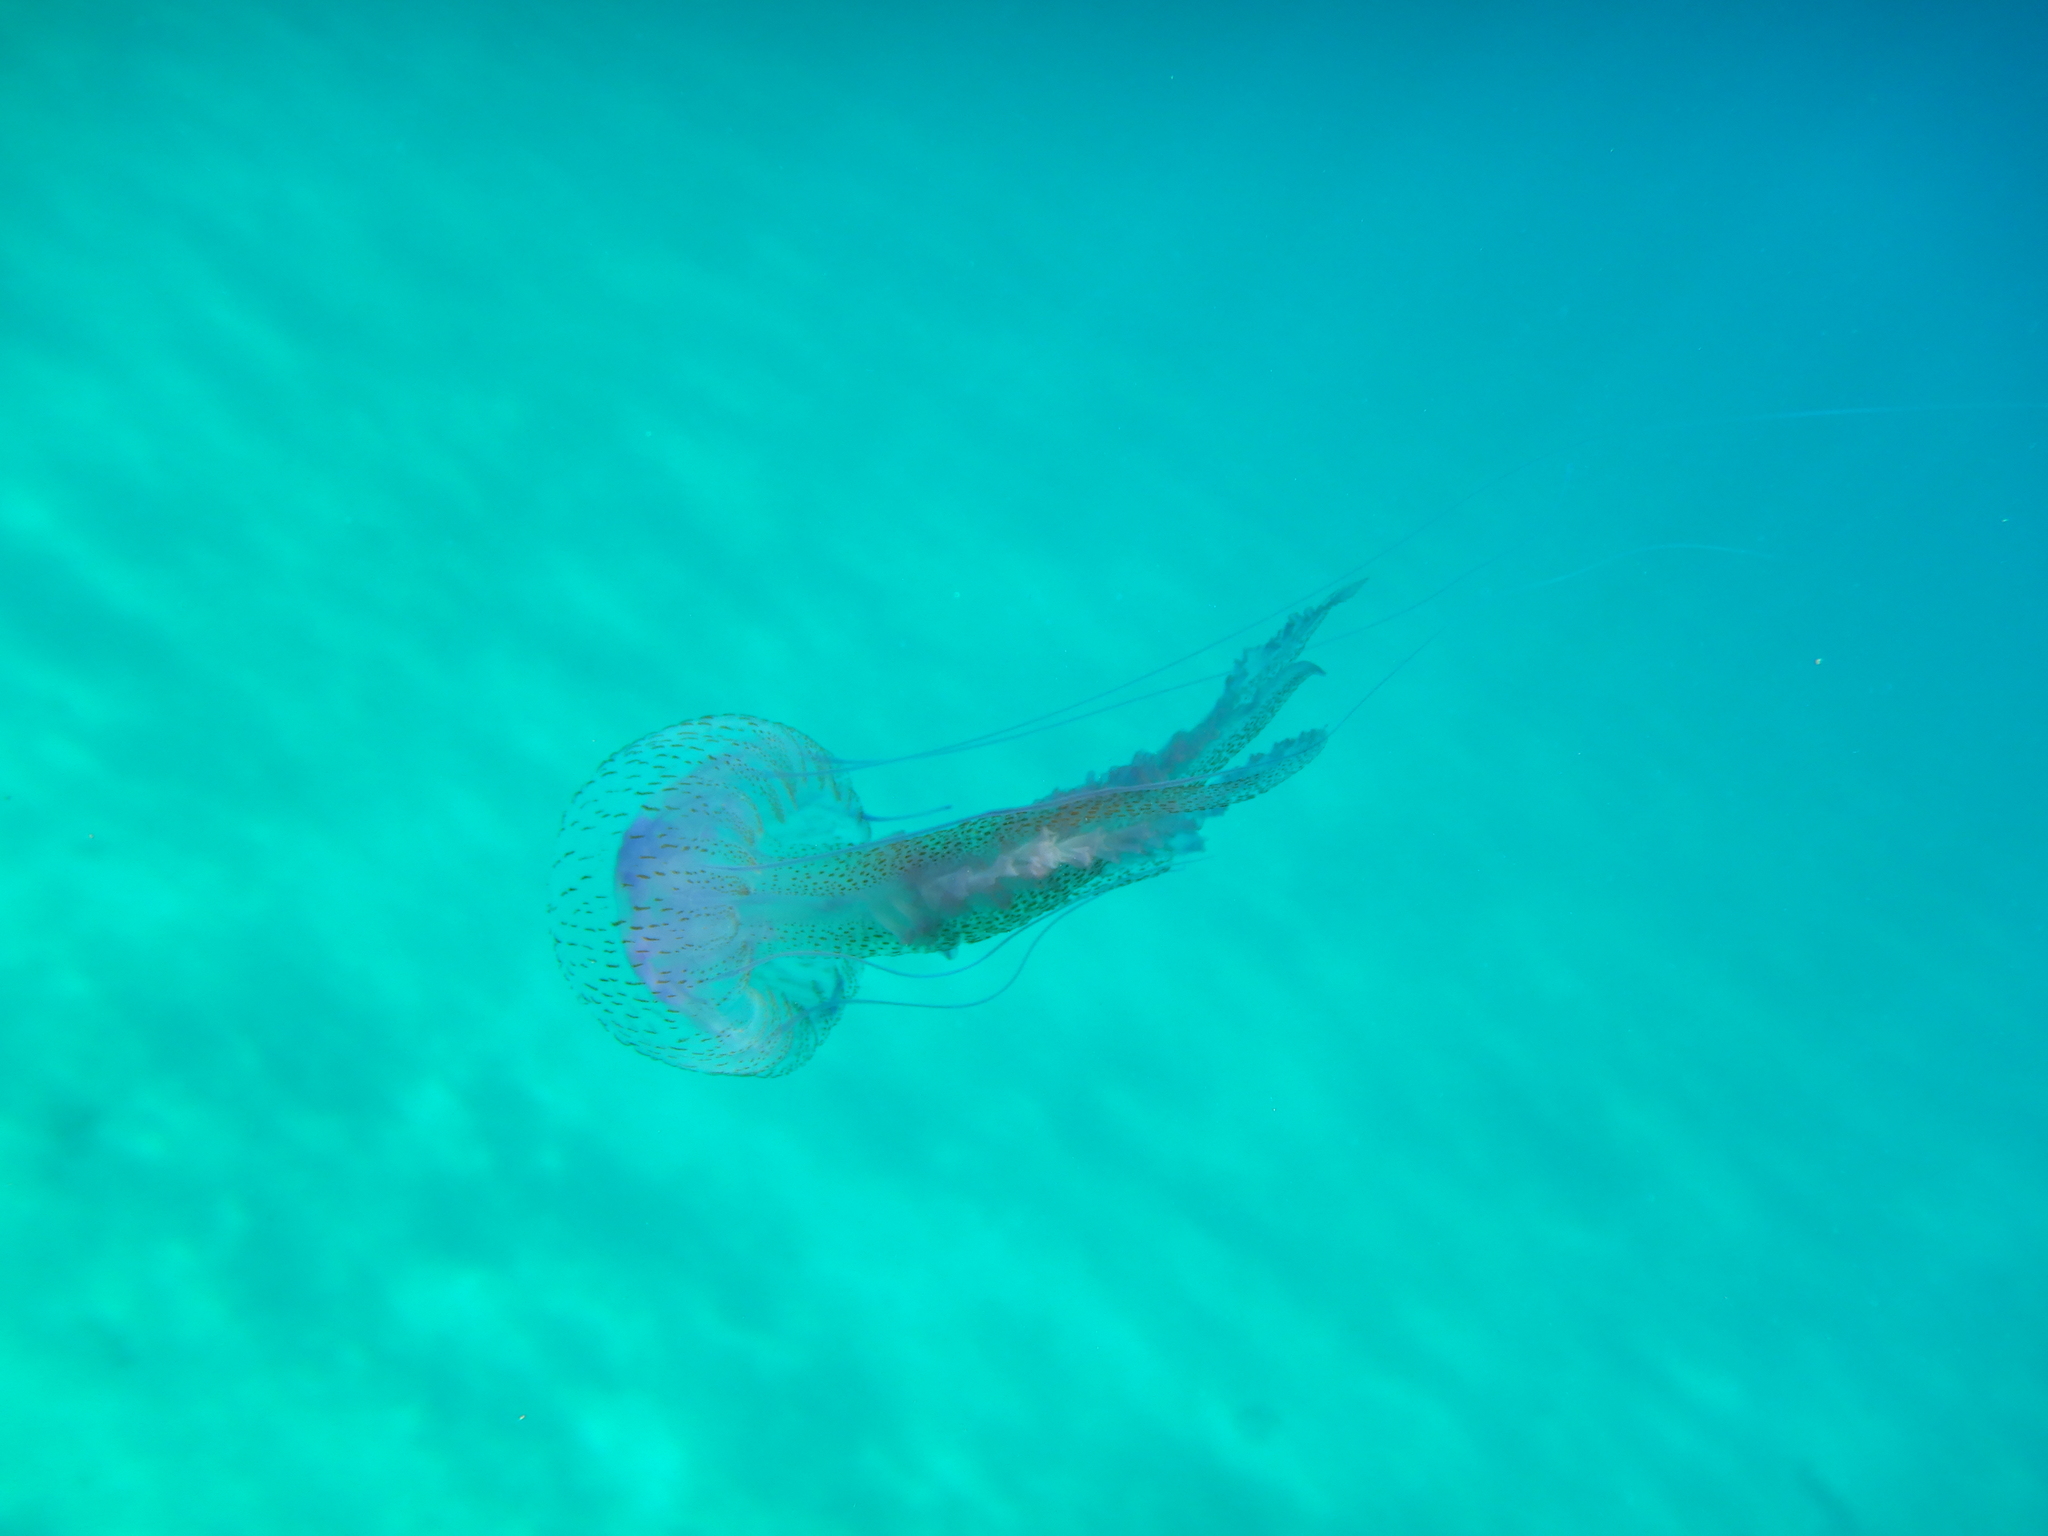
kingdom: Animalia
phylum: Cnidaria
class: Scyphozoa
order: Semaeostomeae
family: Pelagiidae
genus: Pelagia
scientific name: Pelagia noctiluca
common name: Mauve stinger
